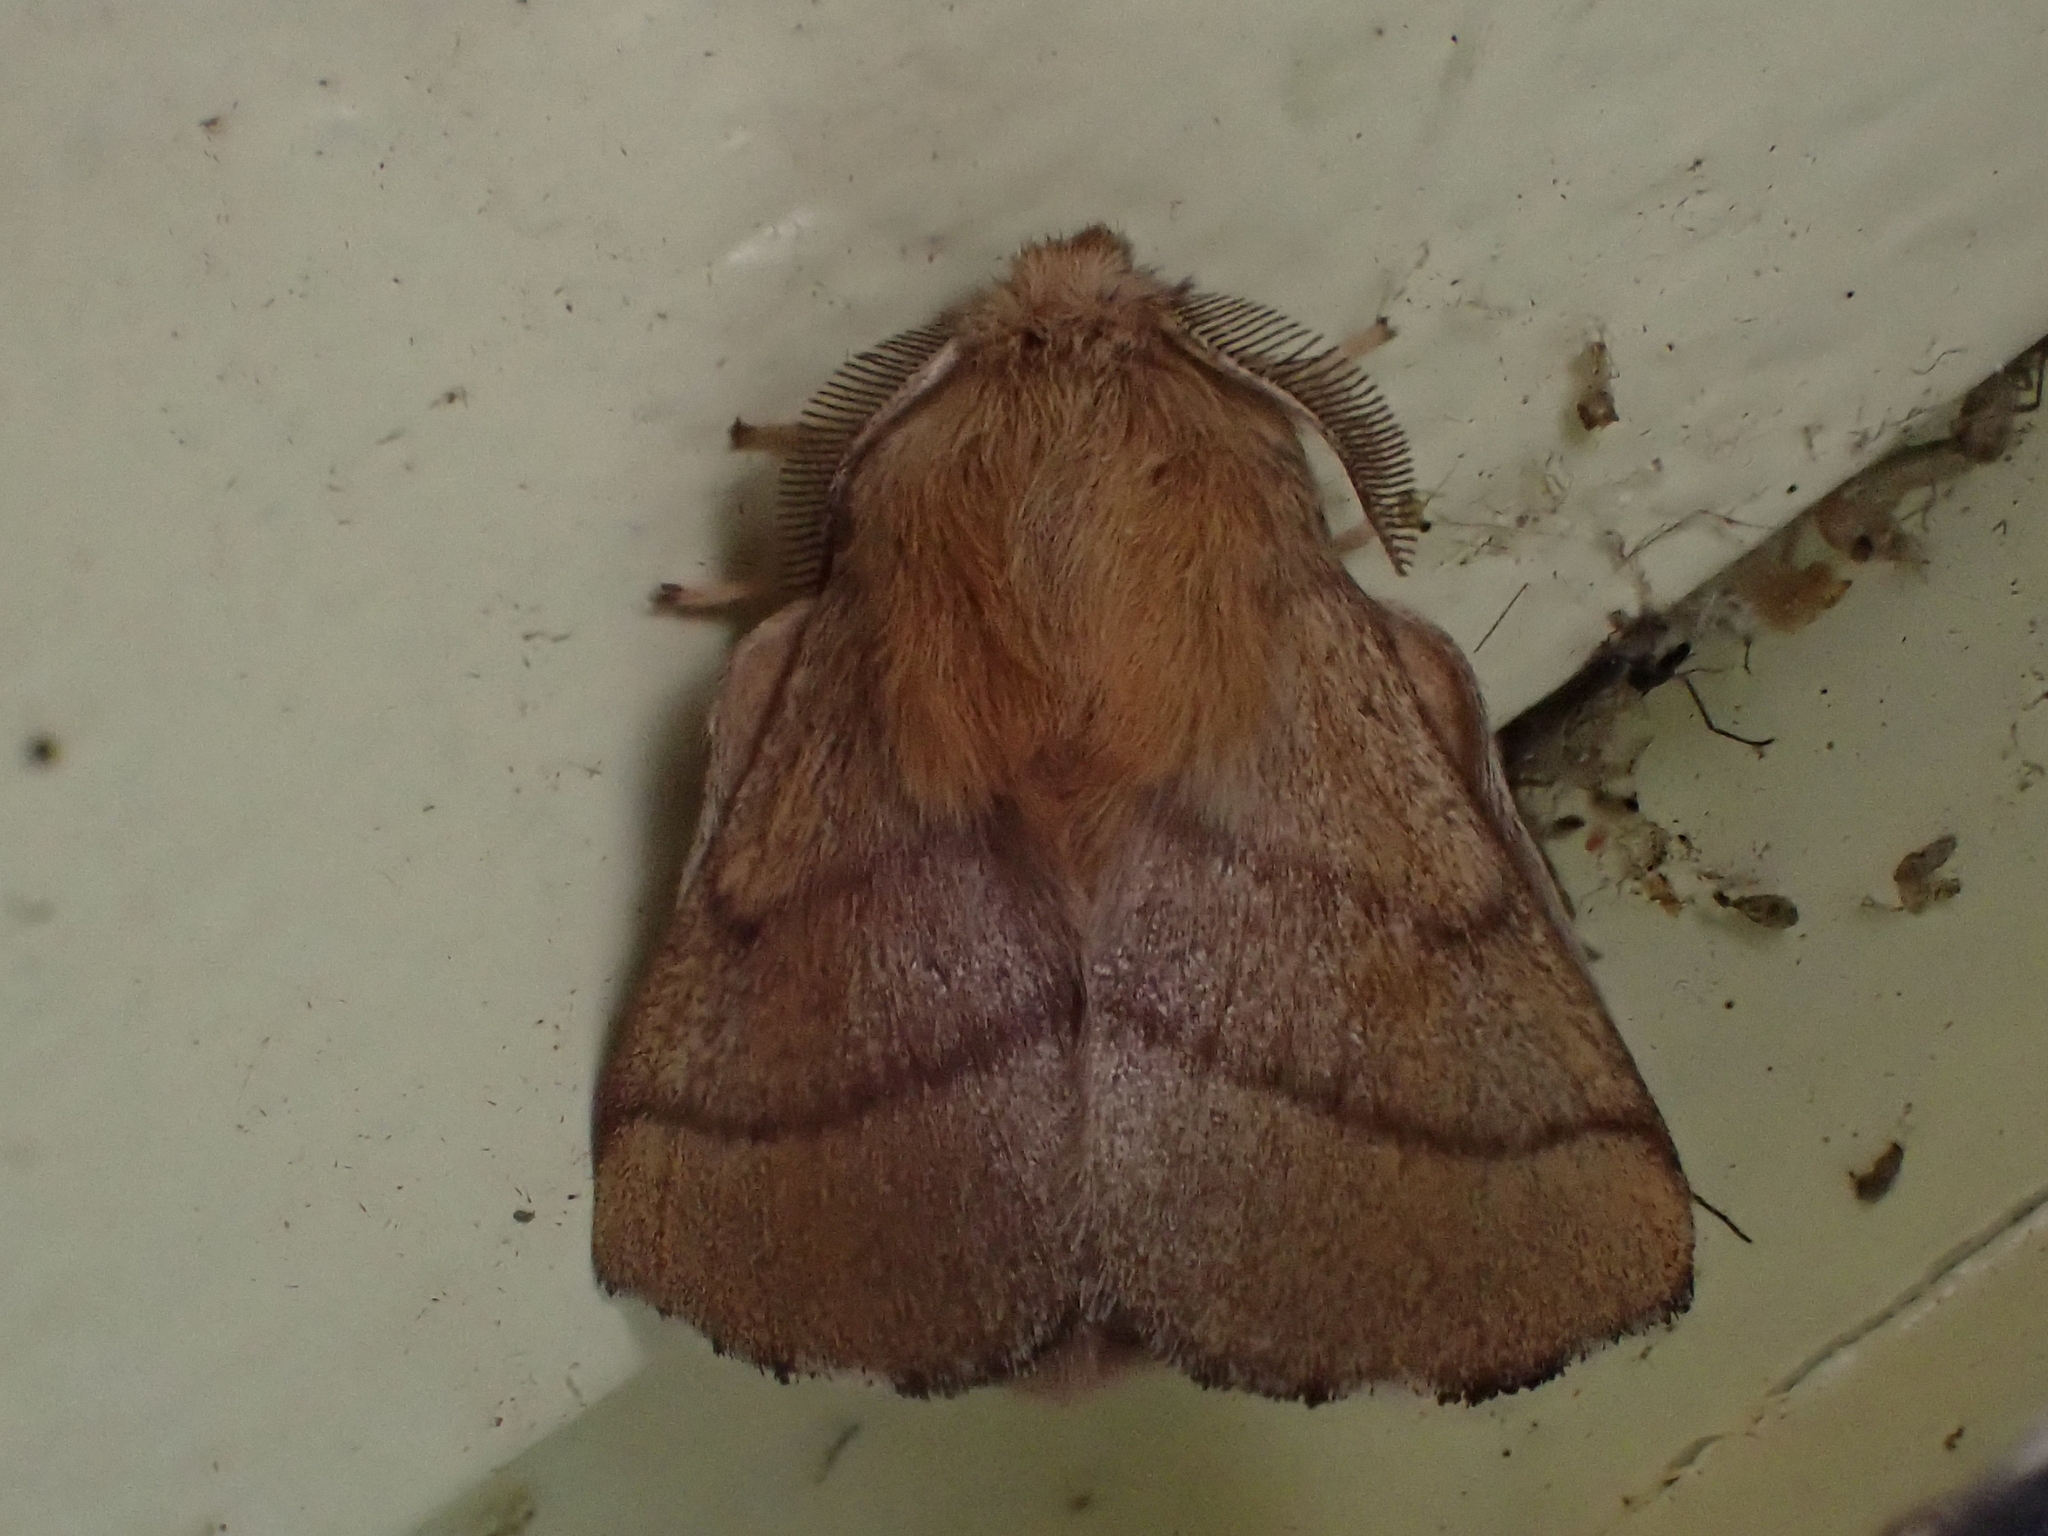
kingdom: Animalia
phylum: Arthropoda
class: Insecta
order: Lepidoptera
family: Lasiocampidae
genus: Malacosoma
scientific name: Malacosoma disstria
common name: Forest tent caterpillar
